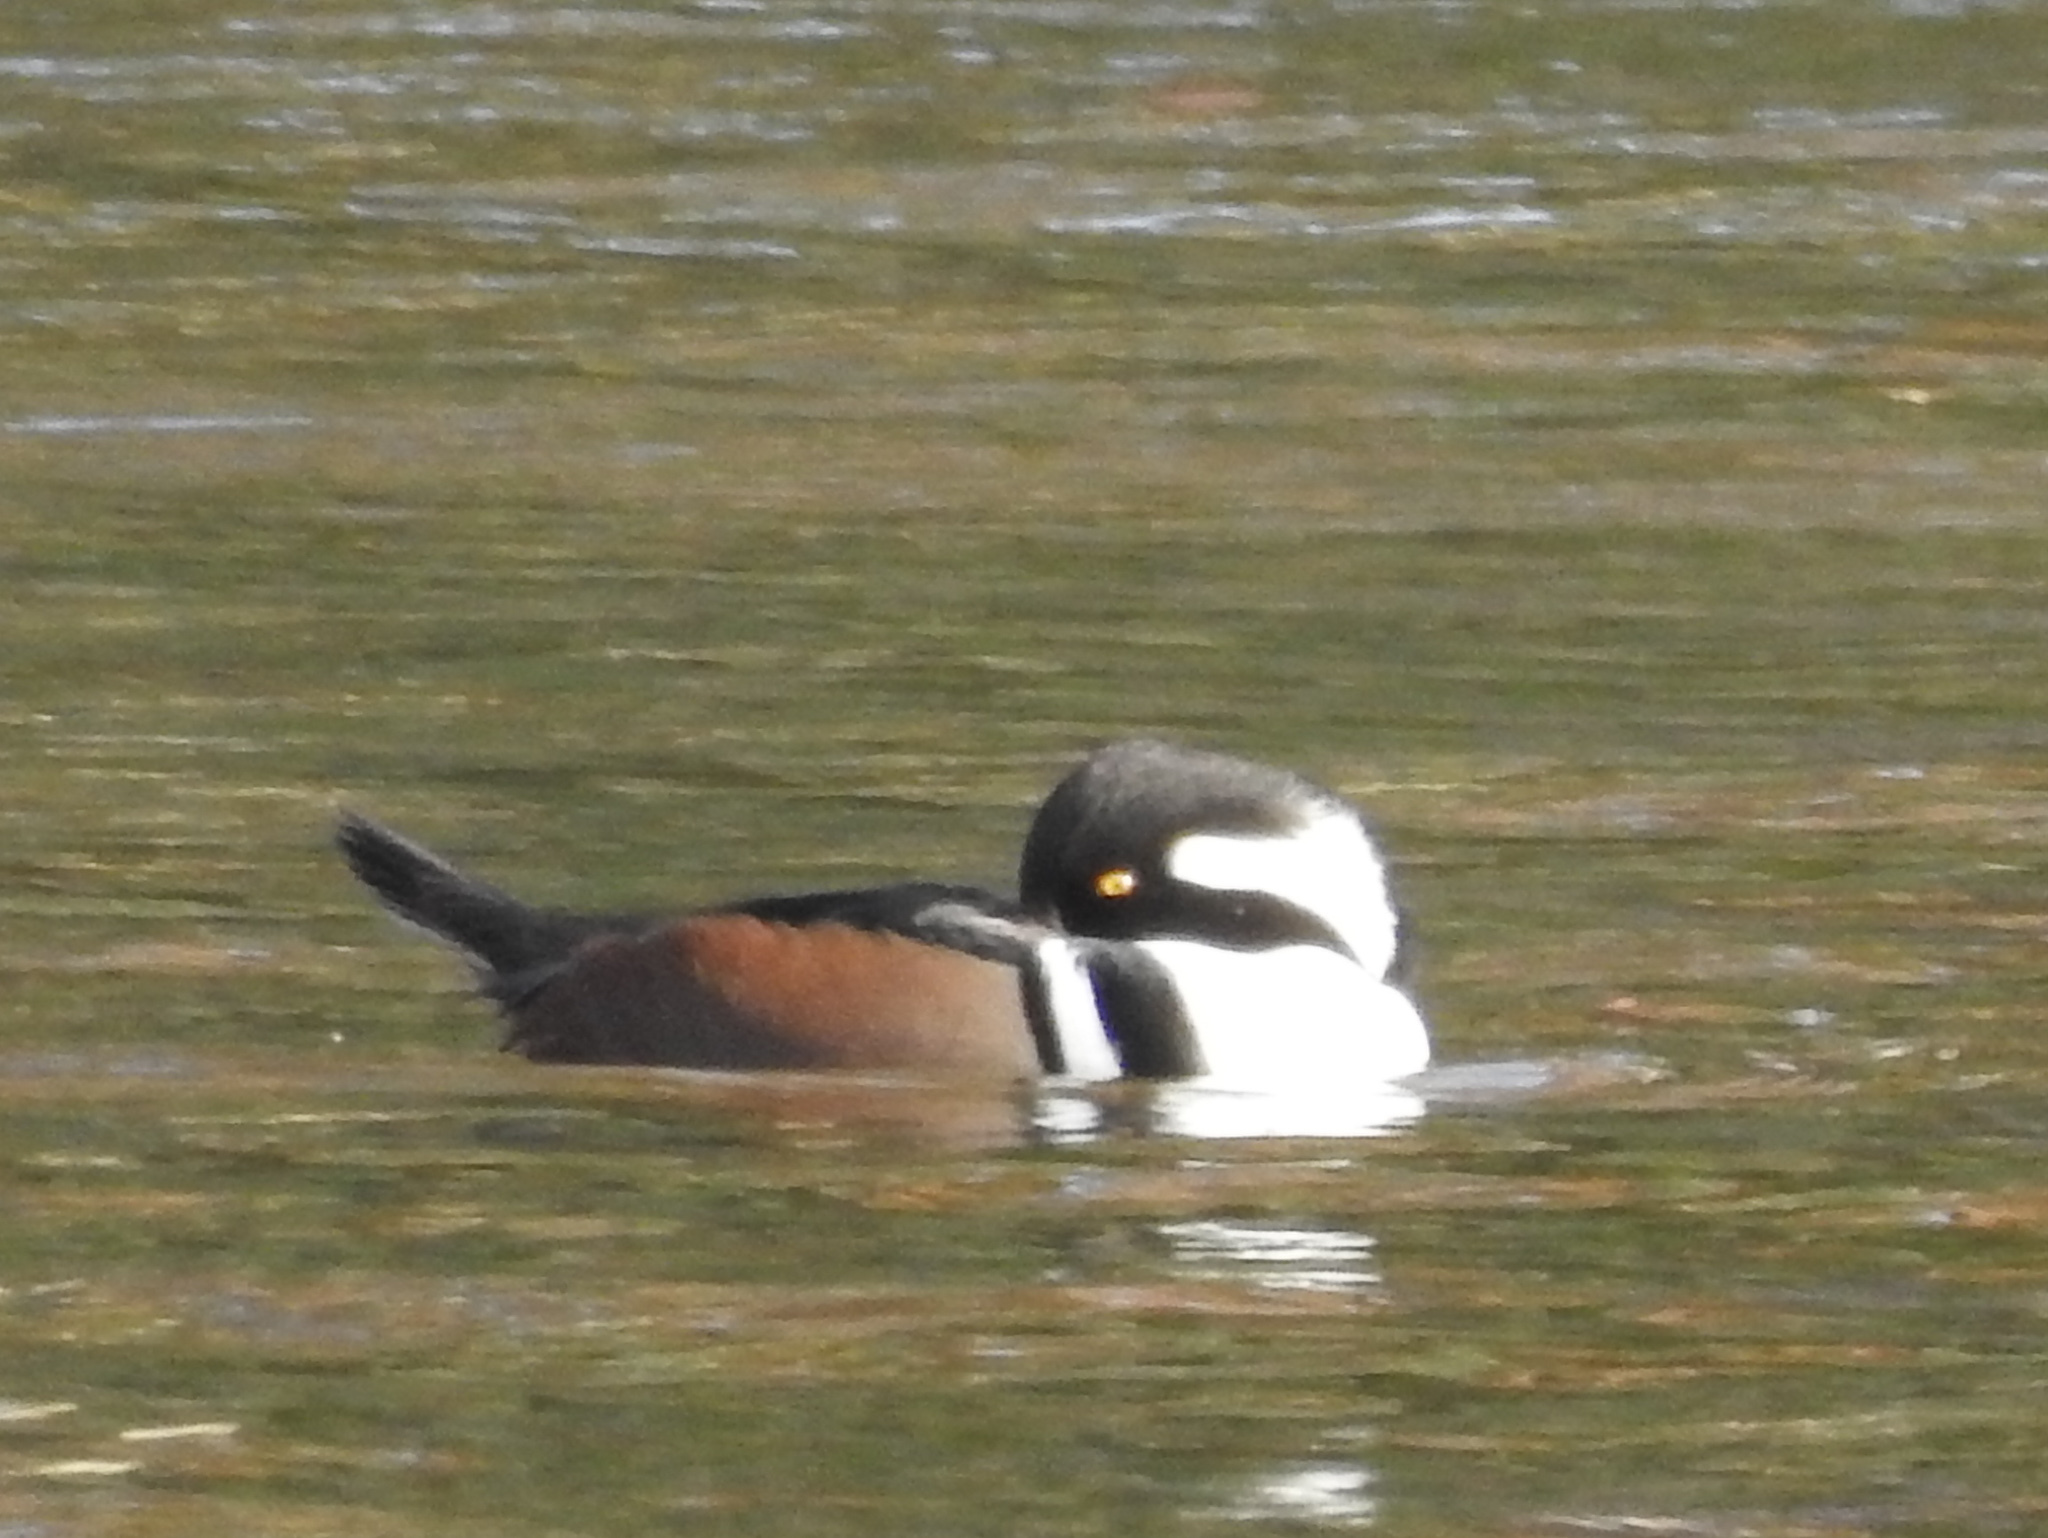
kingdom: Animalia
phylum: Chordata
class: Aves
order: Anseriformes
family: Anatidae
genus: Lophodytes
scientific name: Lophodytes cucullatus
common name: Hooded merganser
